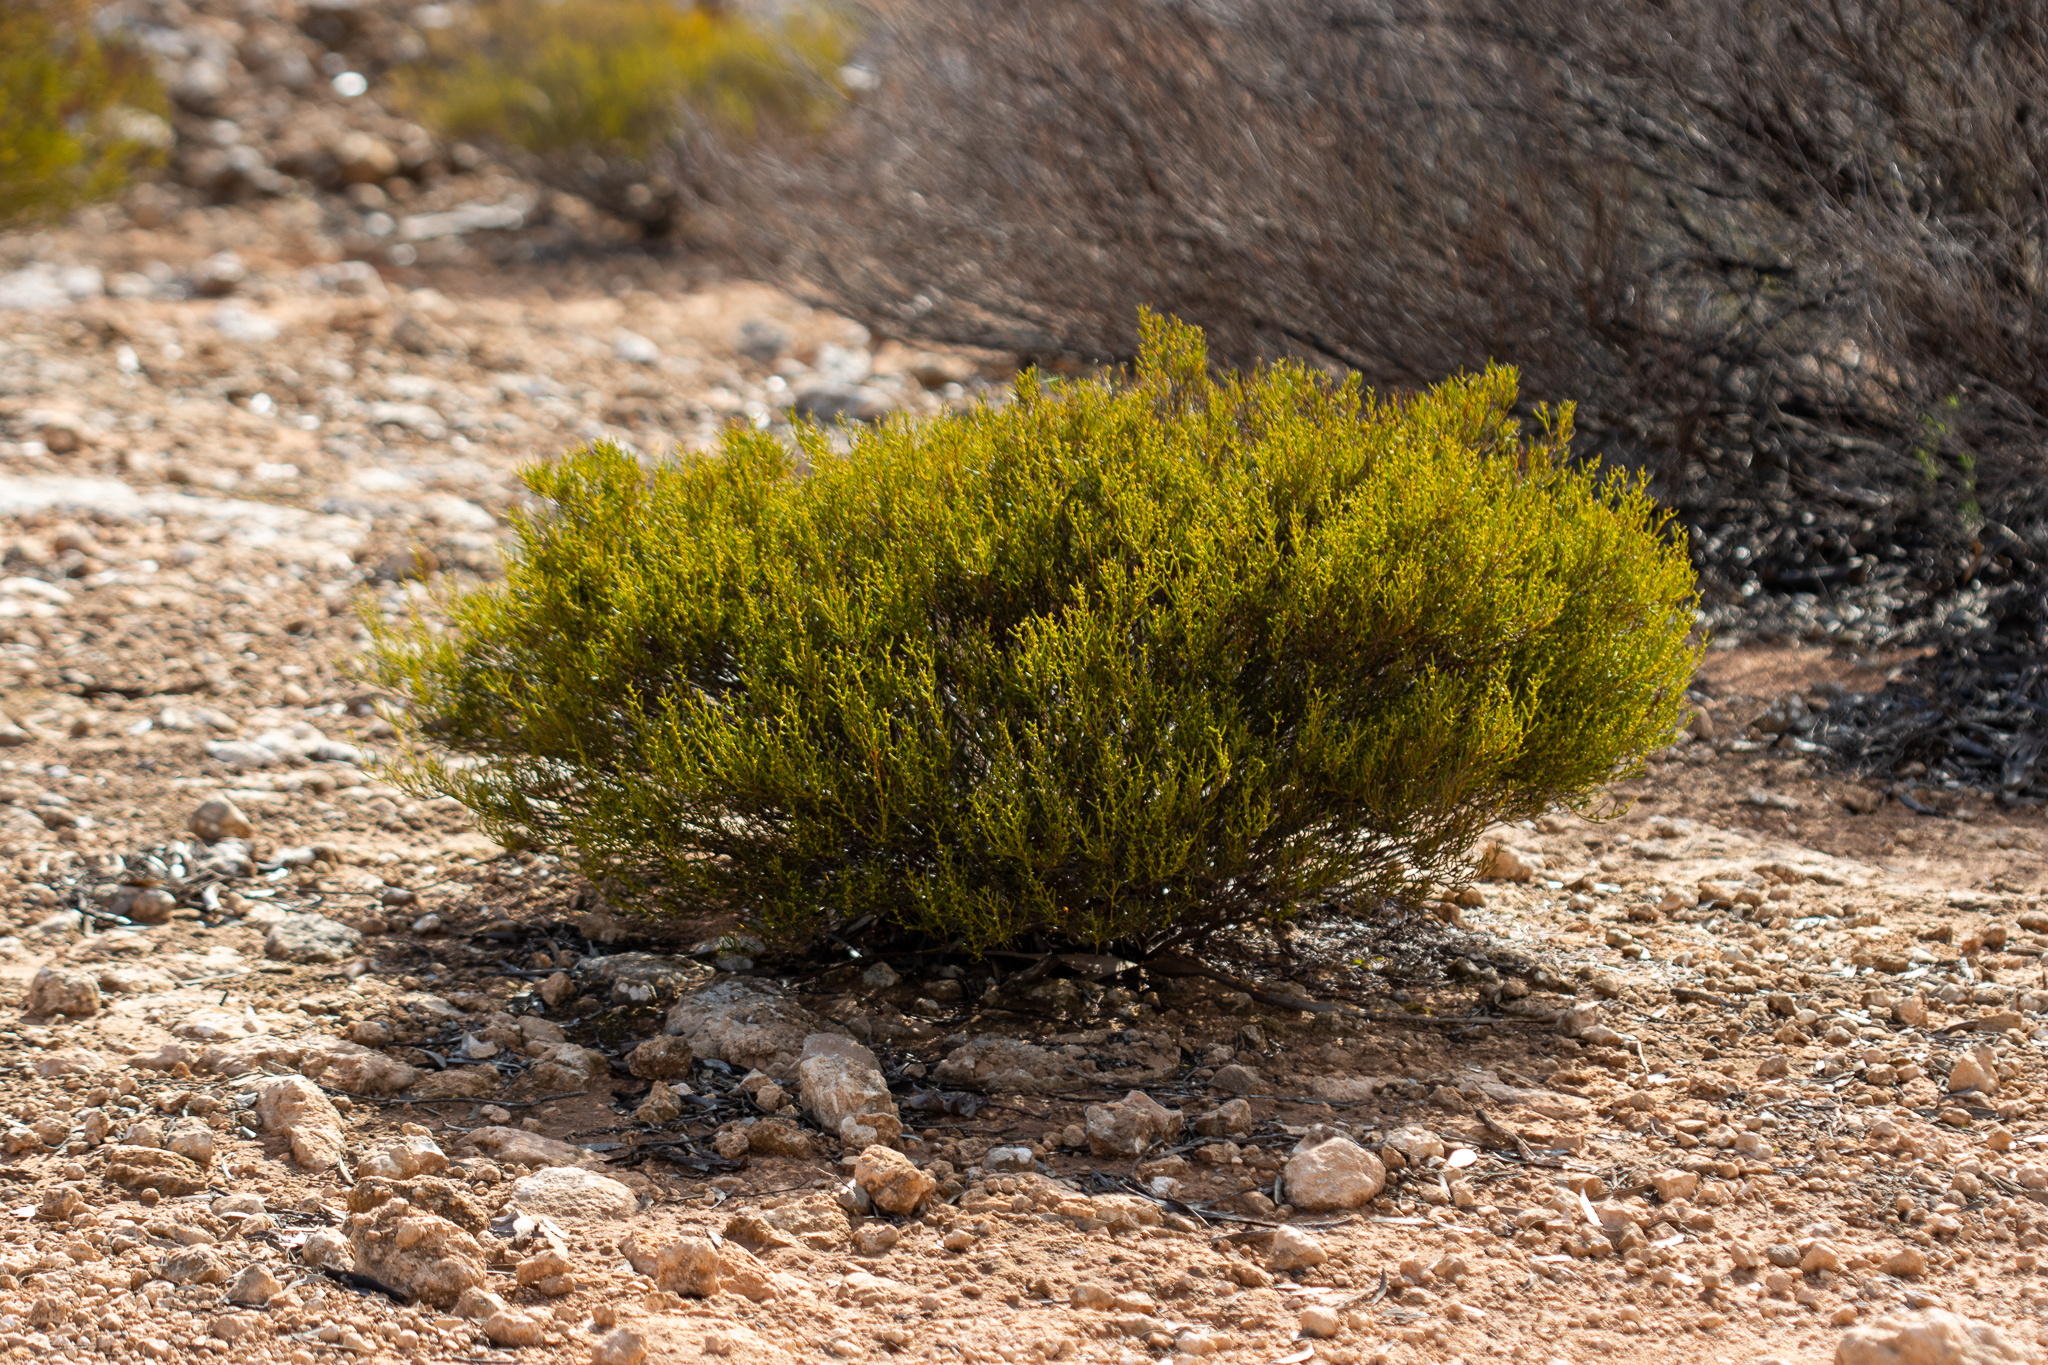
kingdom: Plantae
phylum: Tracheophyta
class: Magnoliopsida
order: Fabales
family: Fabaceae
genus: Acacia
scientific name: Acacia sclerophylla
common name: Hard-leaf wattle
